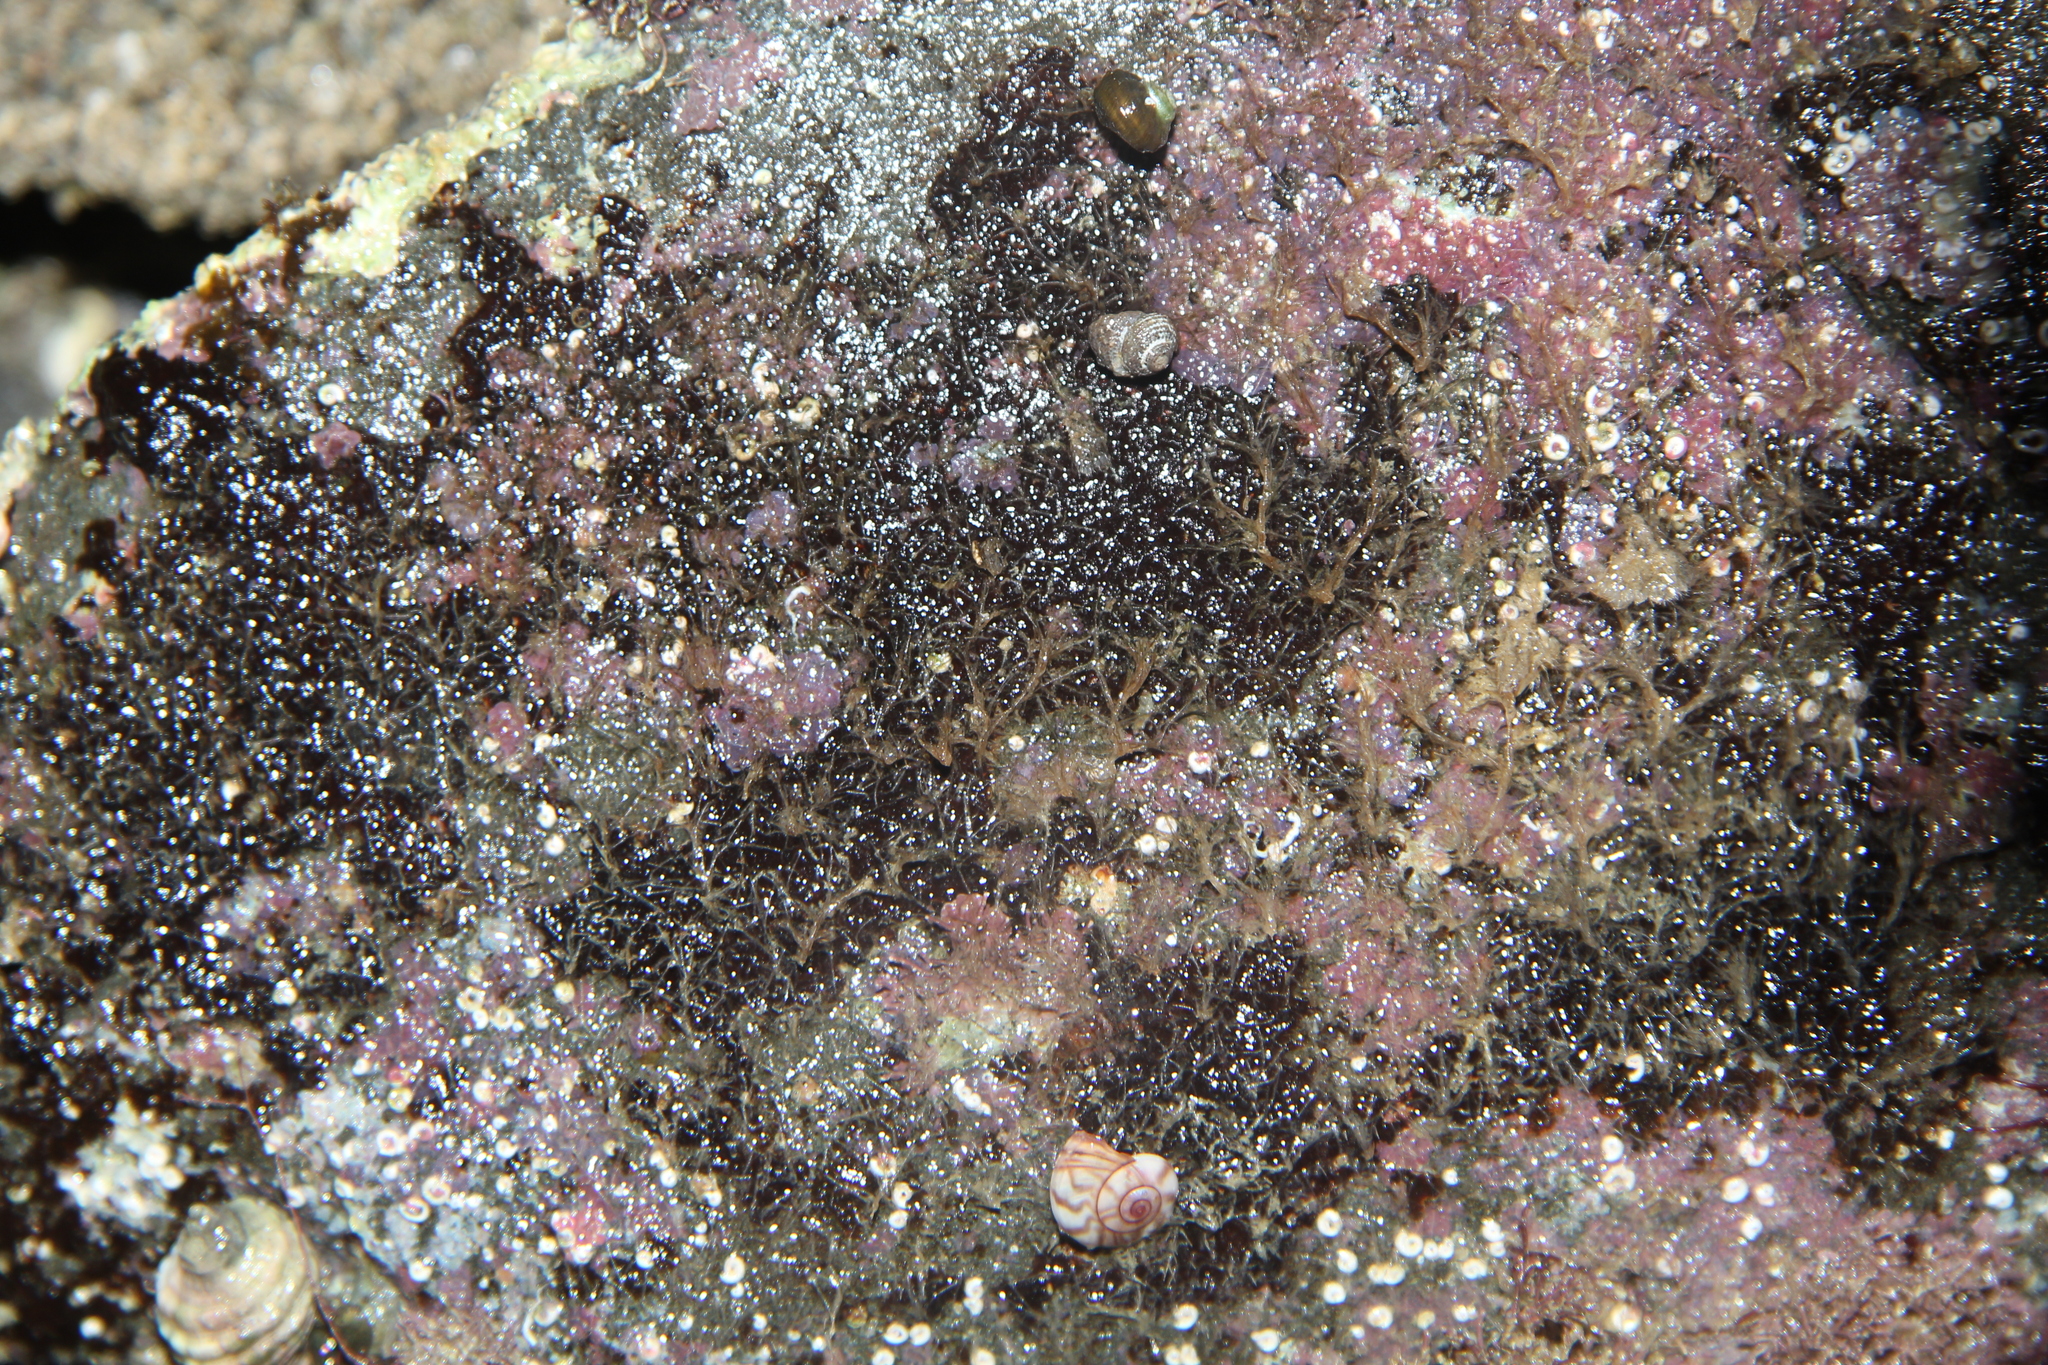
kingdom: Animalia
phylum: Mollusca
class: Gastropoda
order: Seguenziida
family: Chilodontaidae
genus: Herpetopoma
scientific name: Herpetopoma bellum
